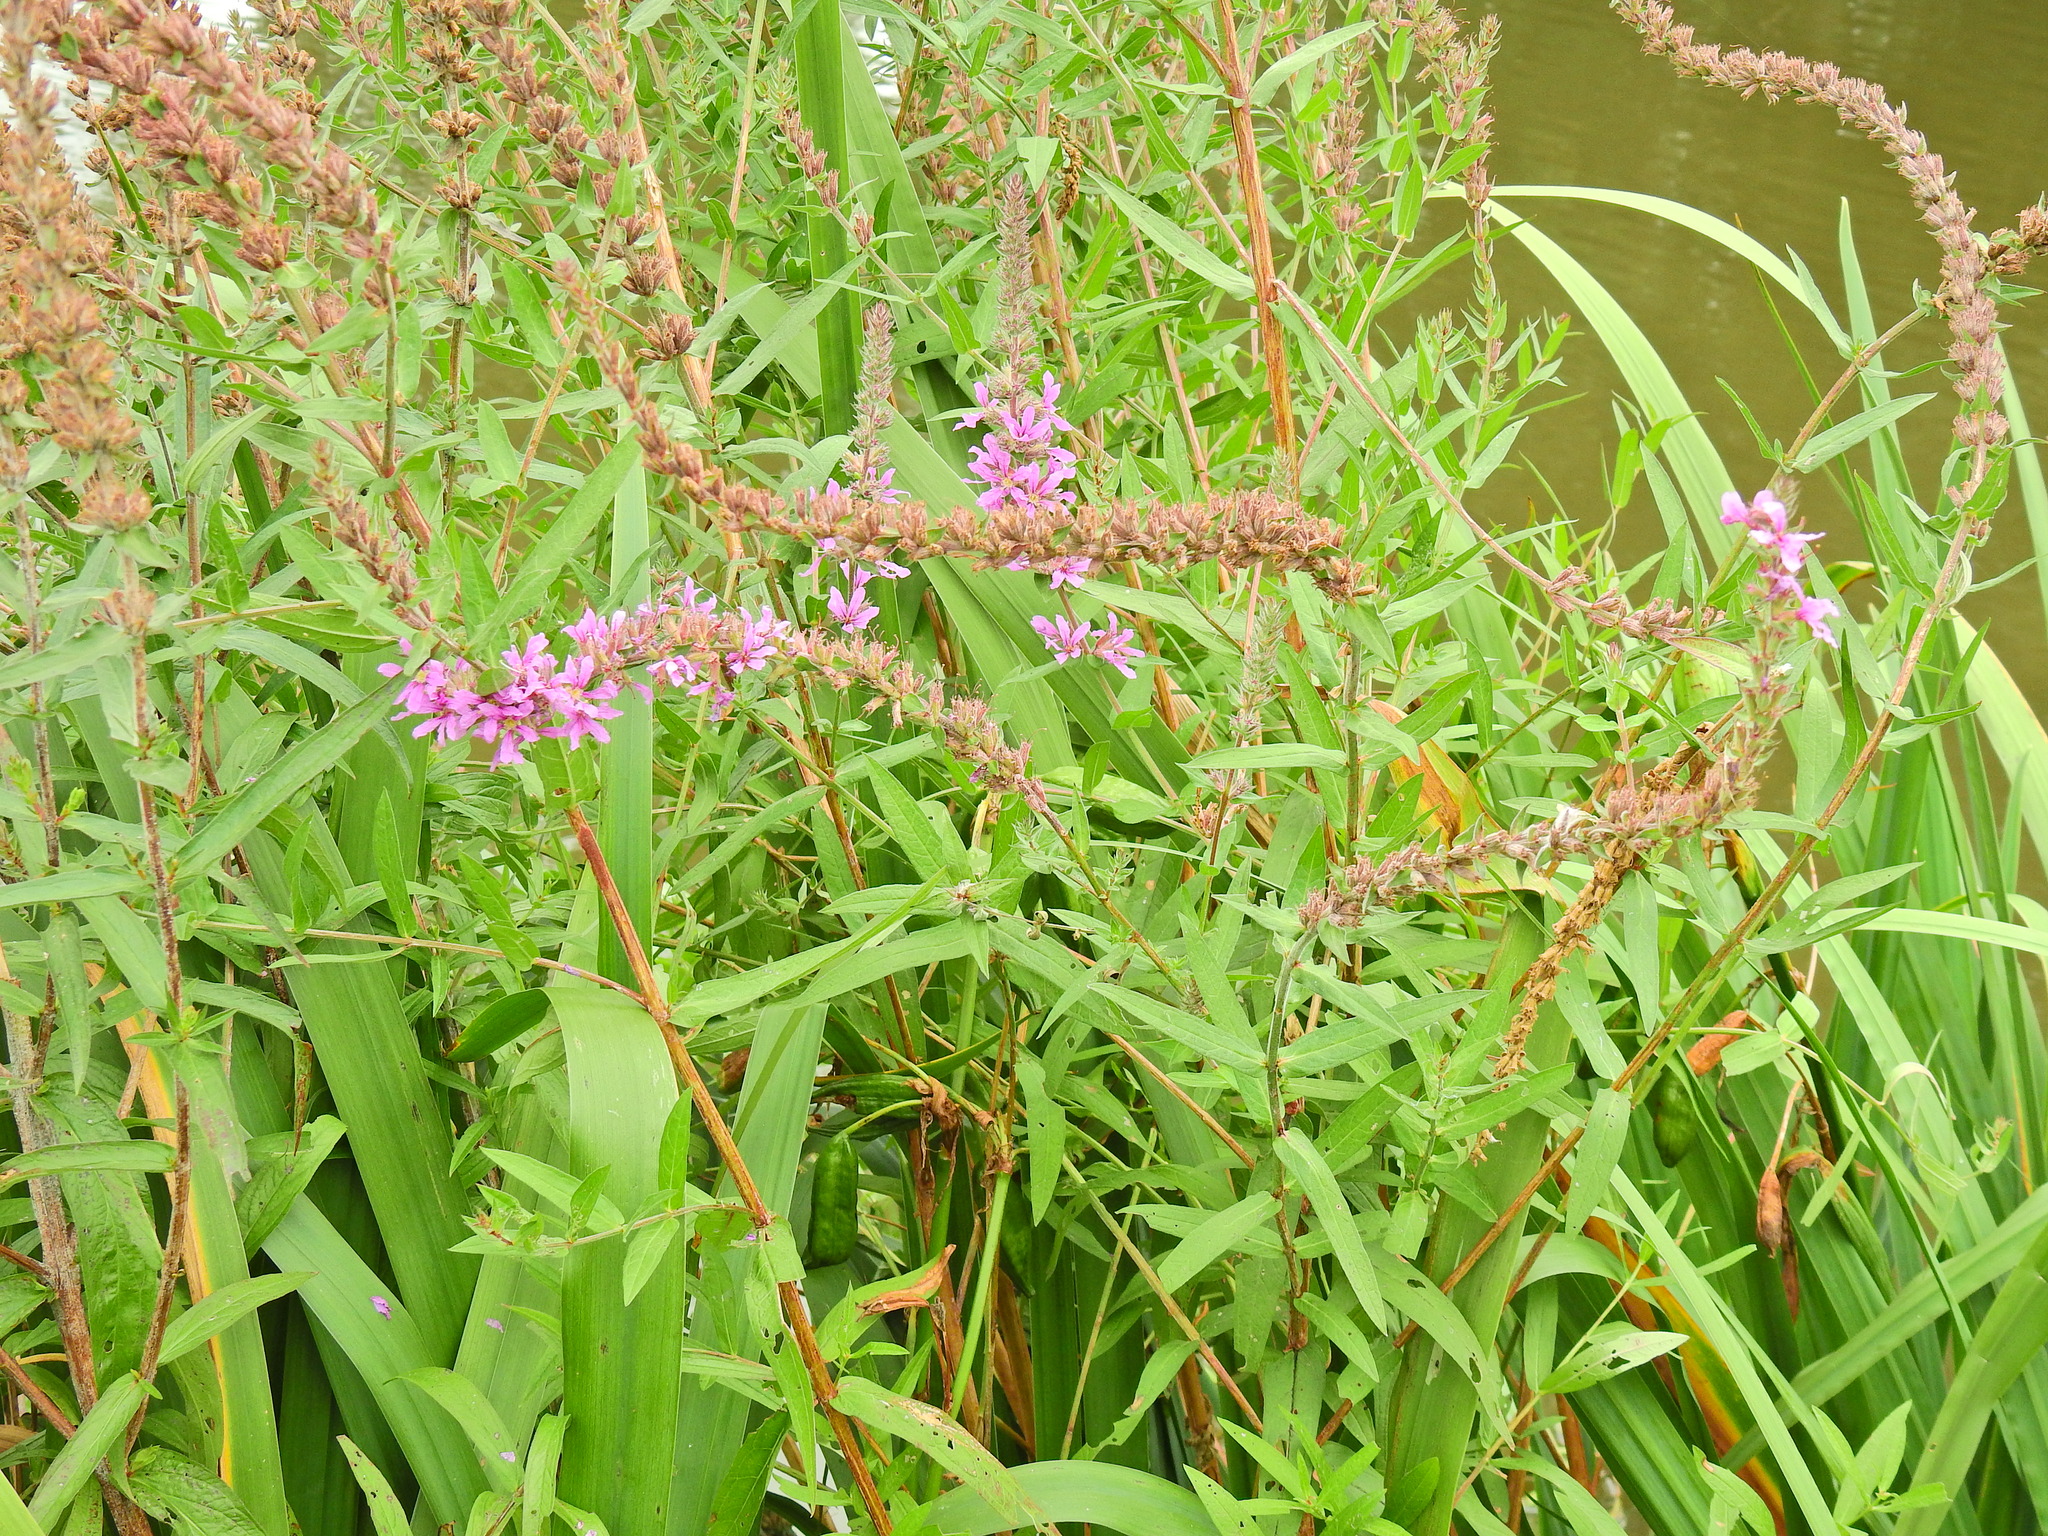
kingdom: Plantae
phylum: Tracheophyta
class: Magnoliopsida
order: Myrtales
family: Lythraceae
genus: Lythrum
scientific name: Lythrum salicaria
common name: Purple loosestrife
